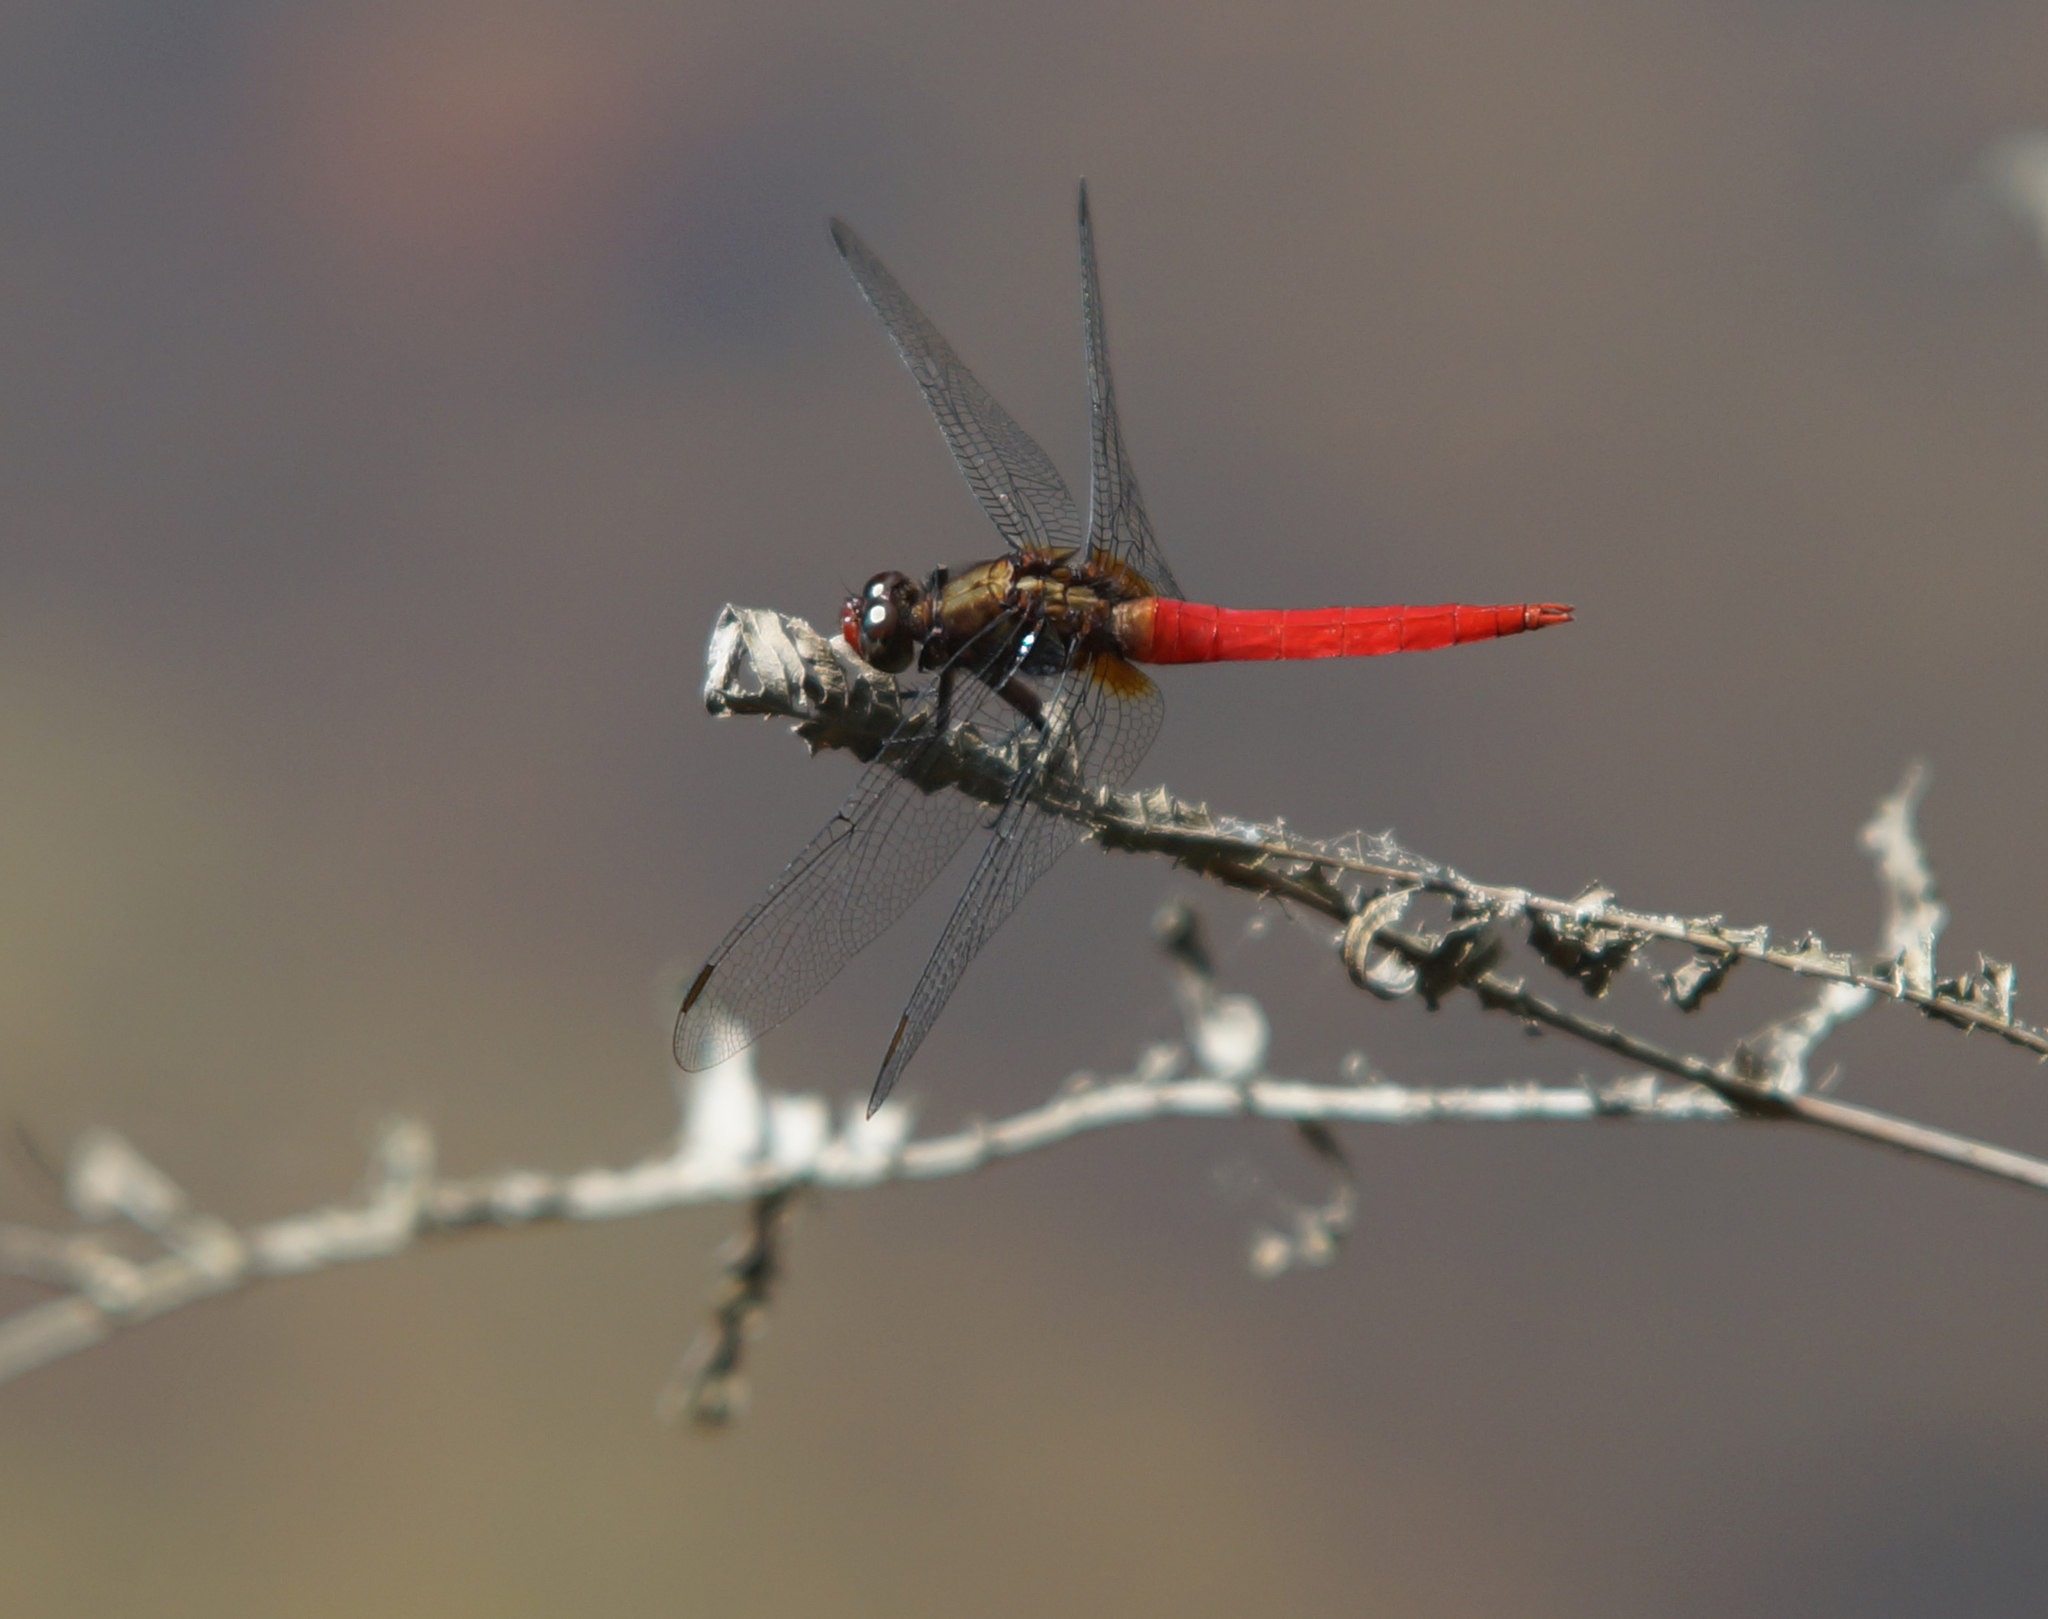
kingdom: Animalia
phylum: Arthropoda
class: Insecta
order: Odonata
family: Libellulidae
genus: Orthetrum
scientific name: Orthetrum chrysis
